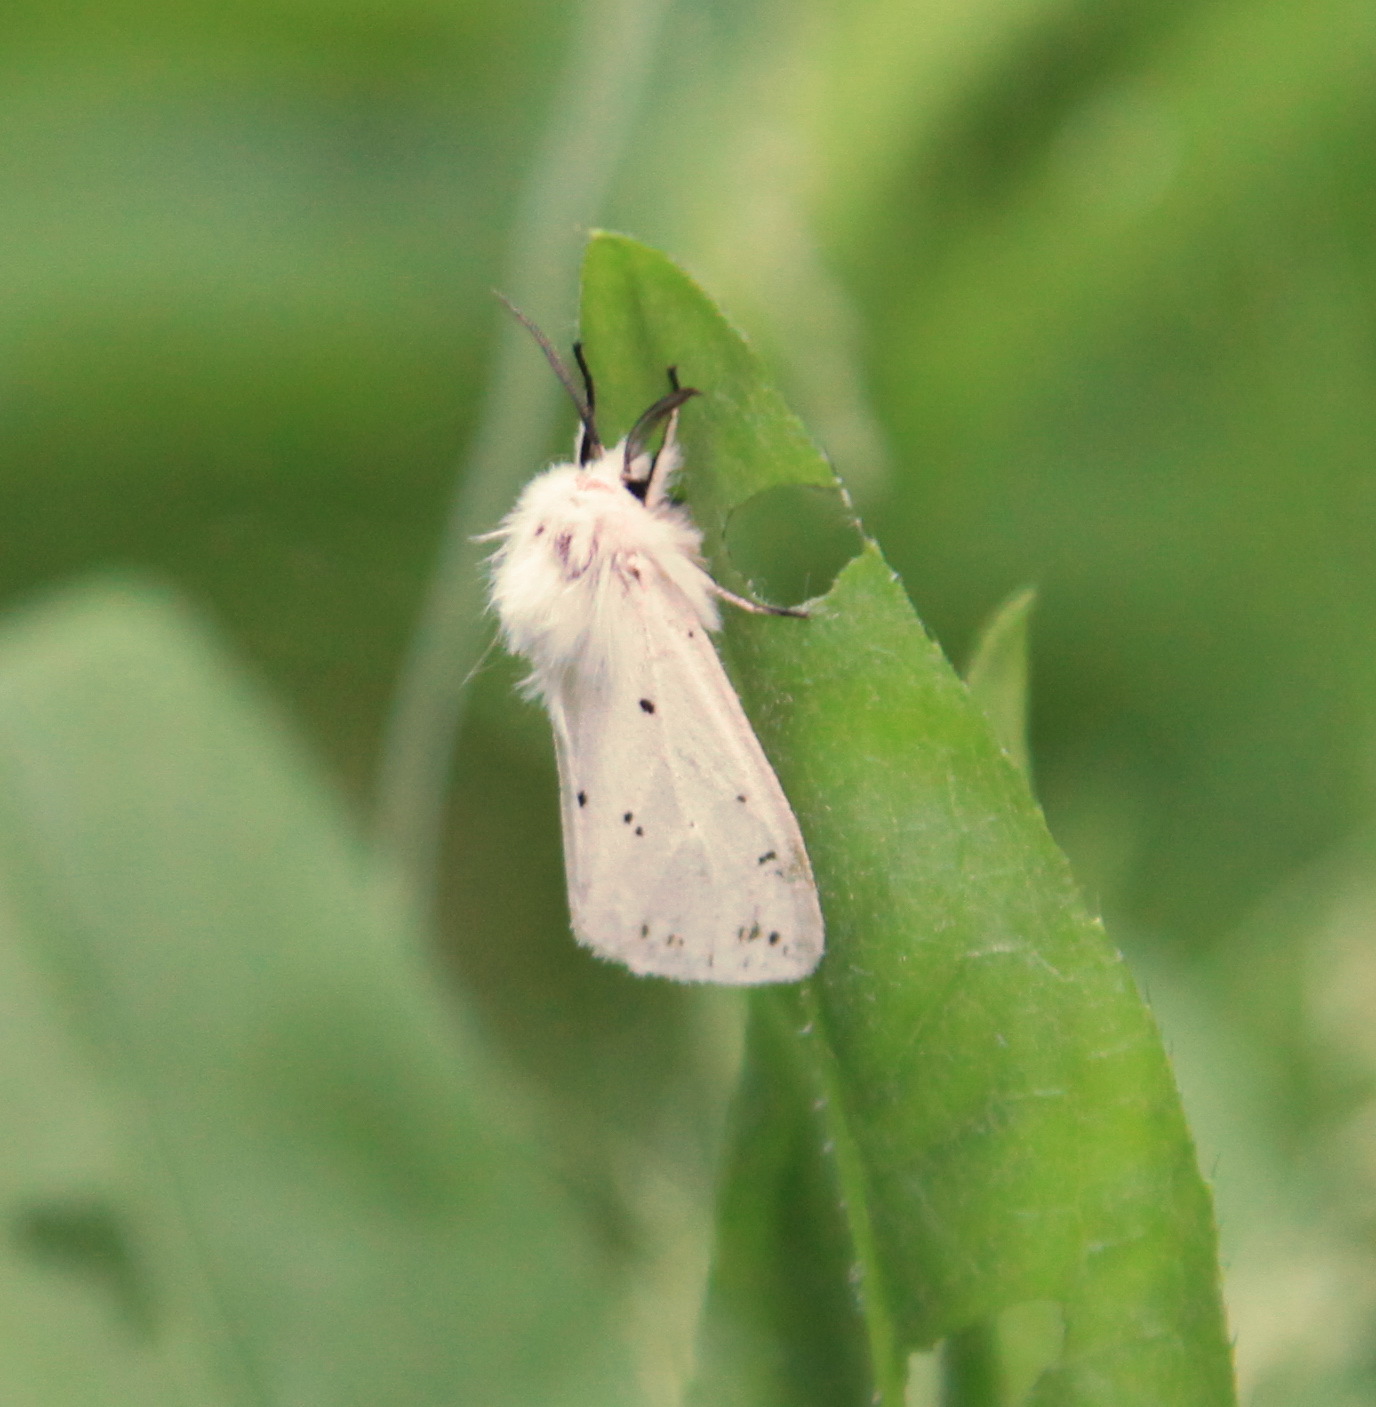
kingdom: Animalia
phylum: Arthropoda
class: Insecta
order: Lepidoptera
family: Erebidae
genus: Spilosoma
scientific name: Spilosoma lubricipeda
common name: White ermine
